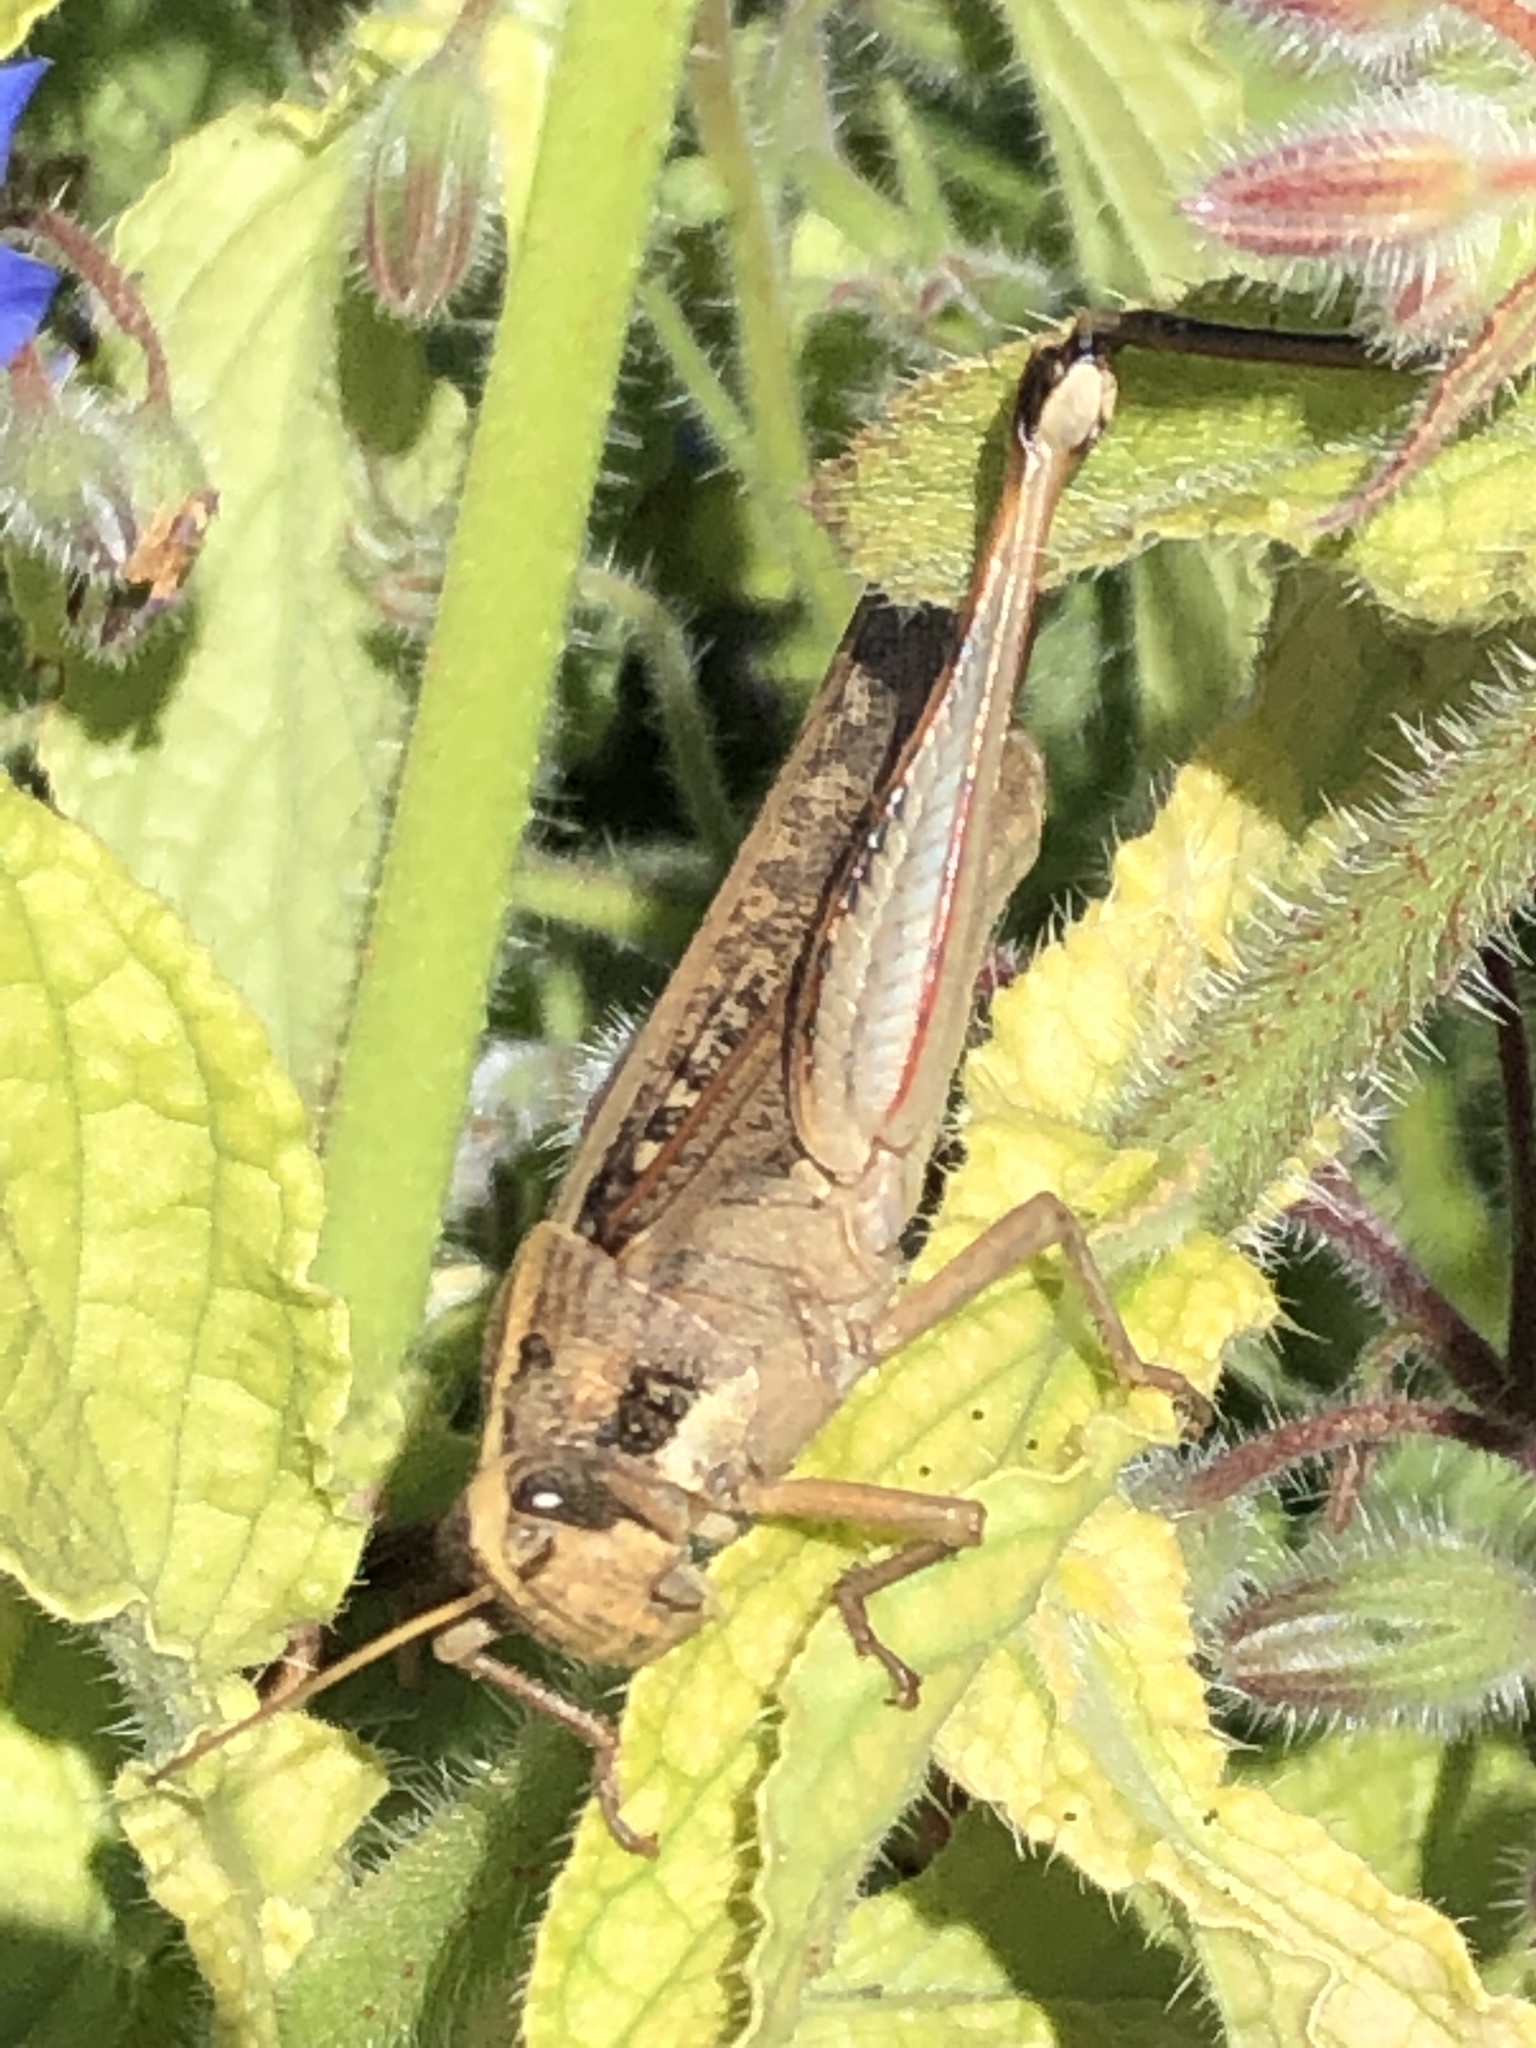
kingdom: Animalia
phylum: Arthropoda
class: Insecta
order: Orthoptera
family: Acrididae
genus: Schistocerca
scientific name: Schistocerca nitens
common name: Vagrant grasshopper
